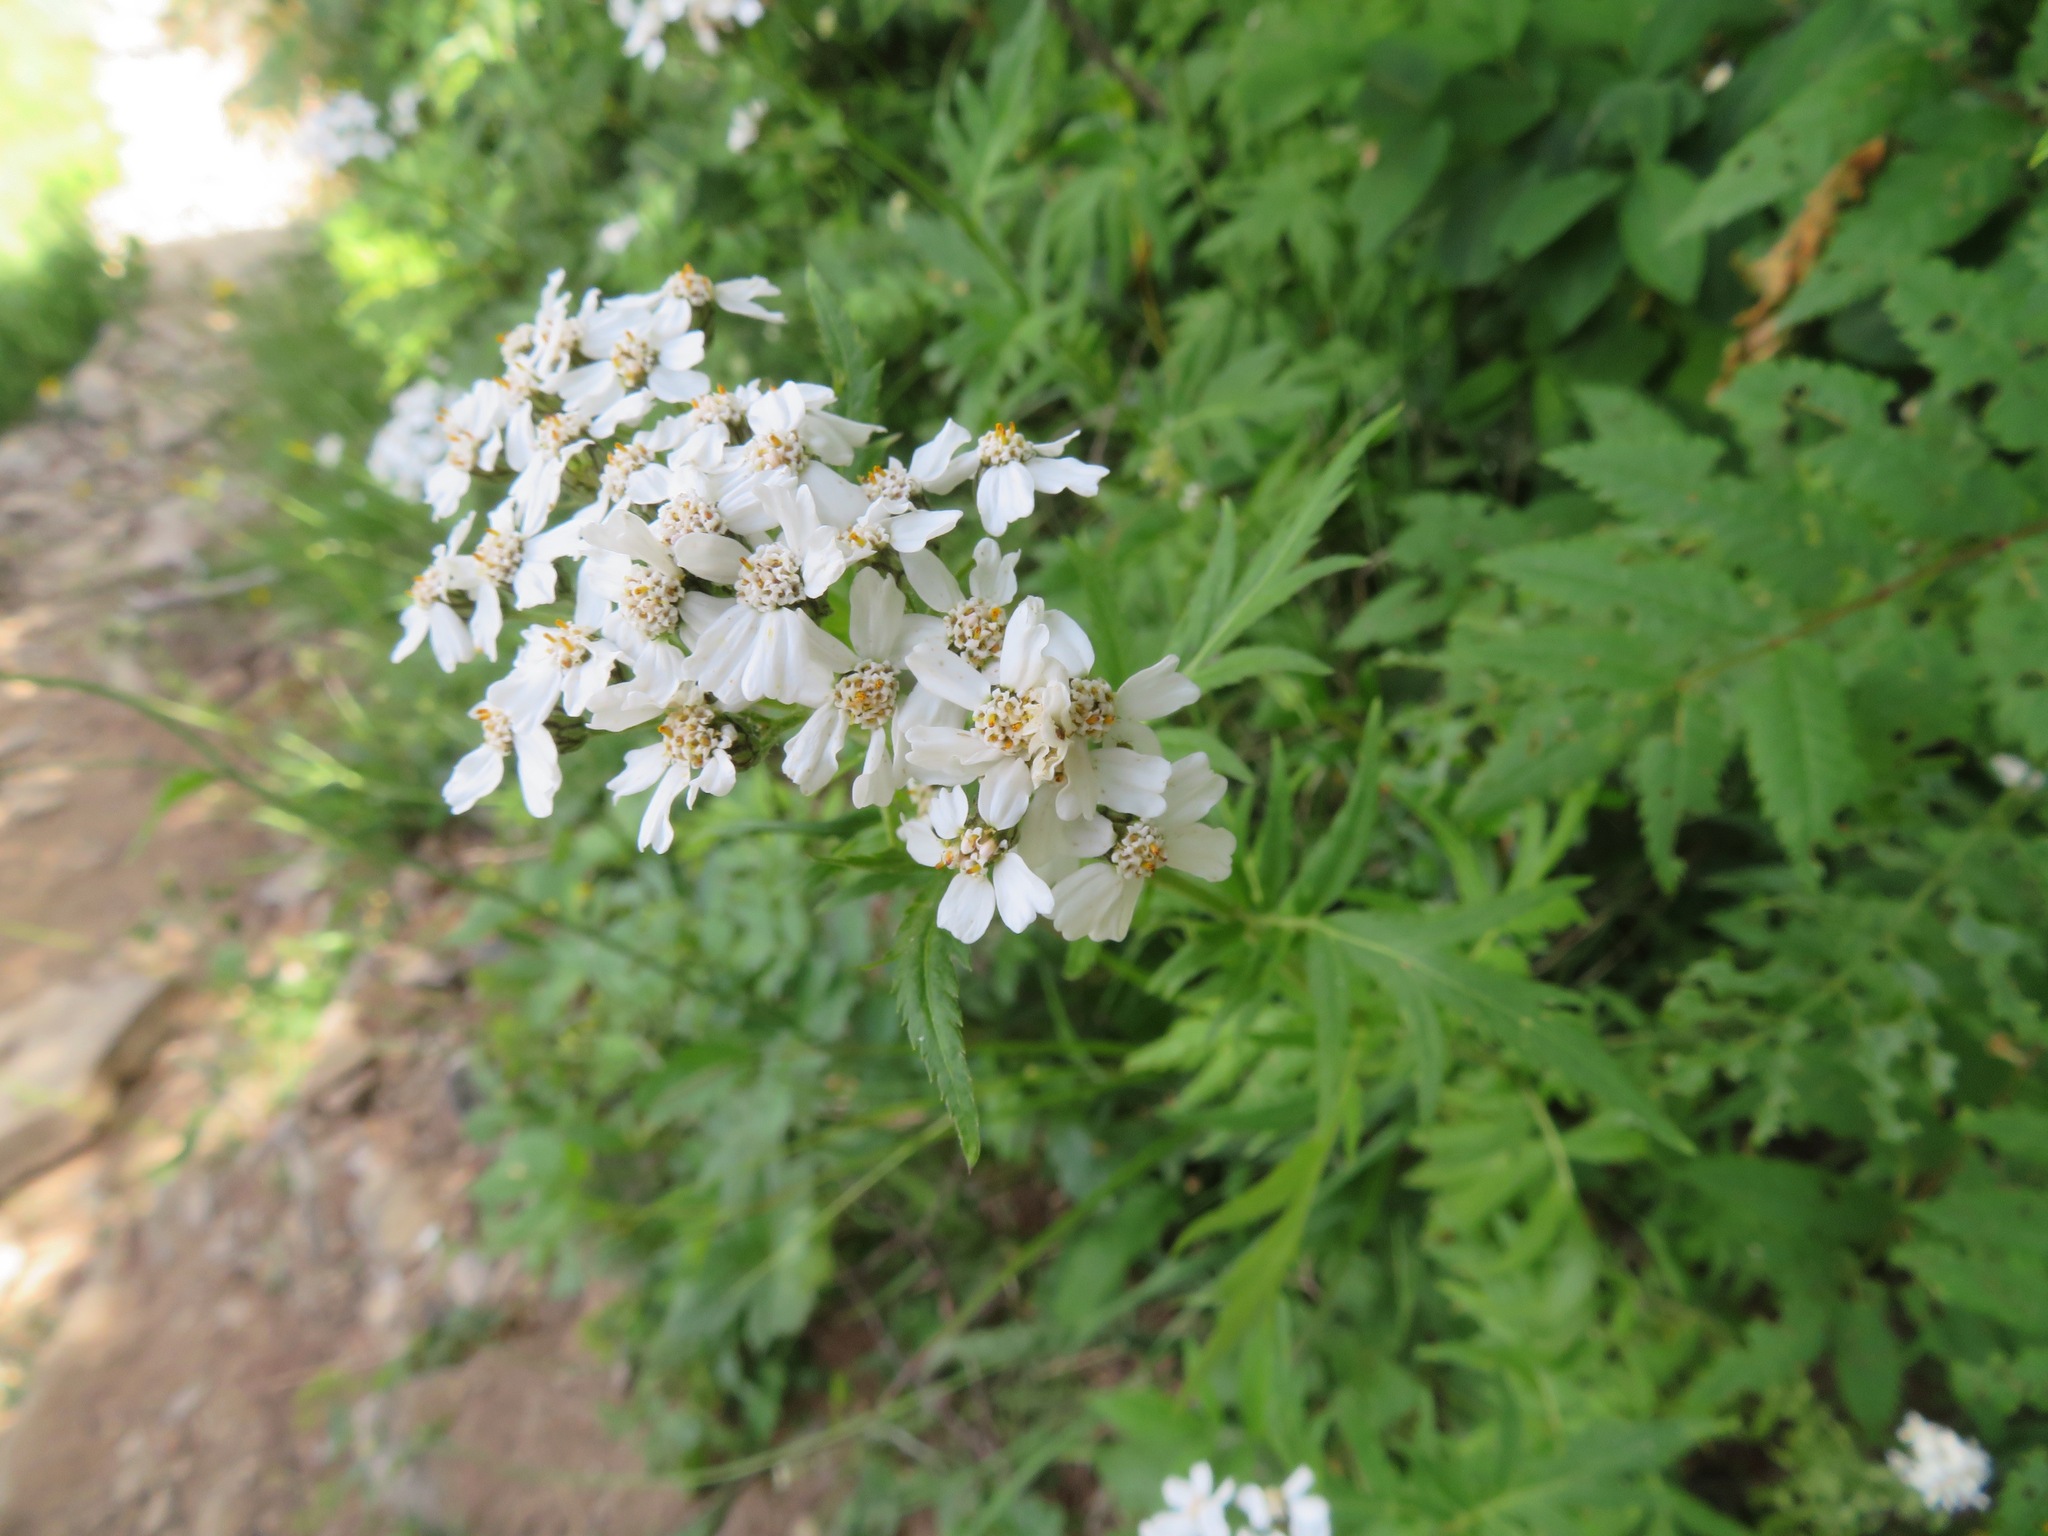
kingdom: Plantae
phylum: Tracheophyta
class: Magnoliopsida
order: Asterales
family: Asteraceae
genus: Achillea
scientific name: Achillea macrophylla
